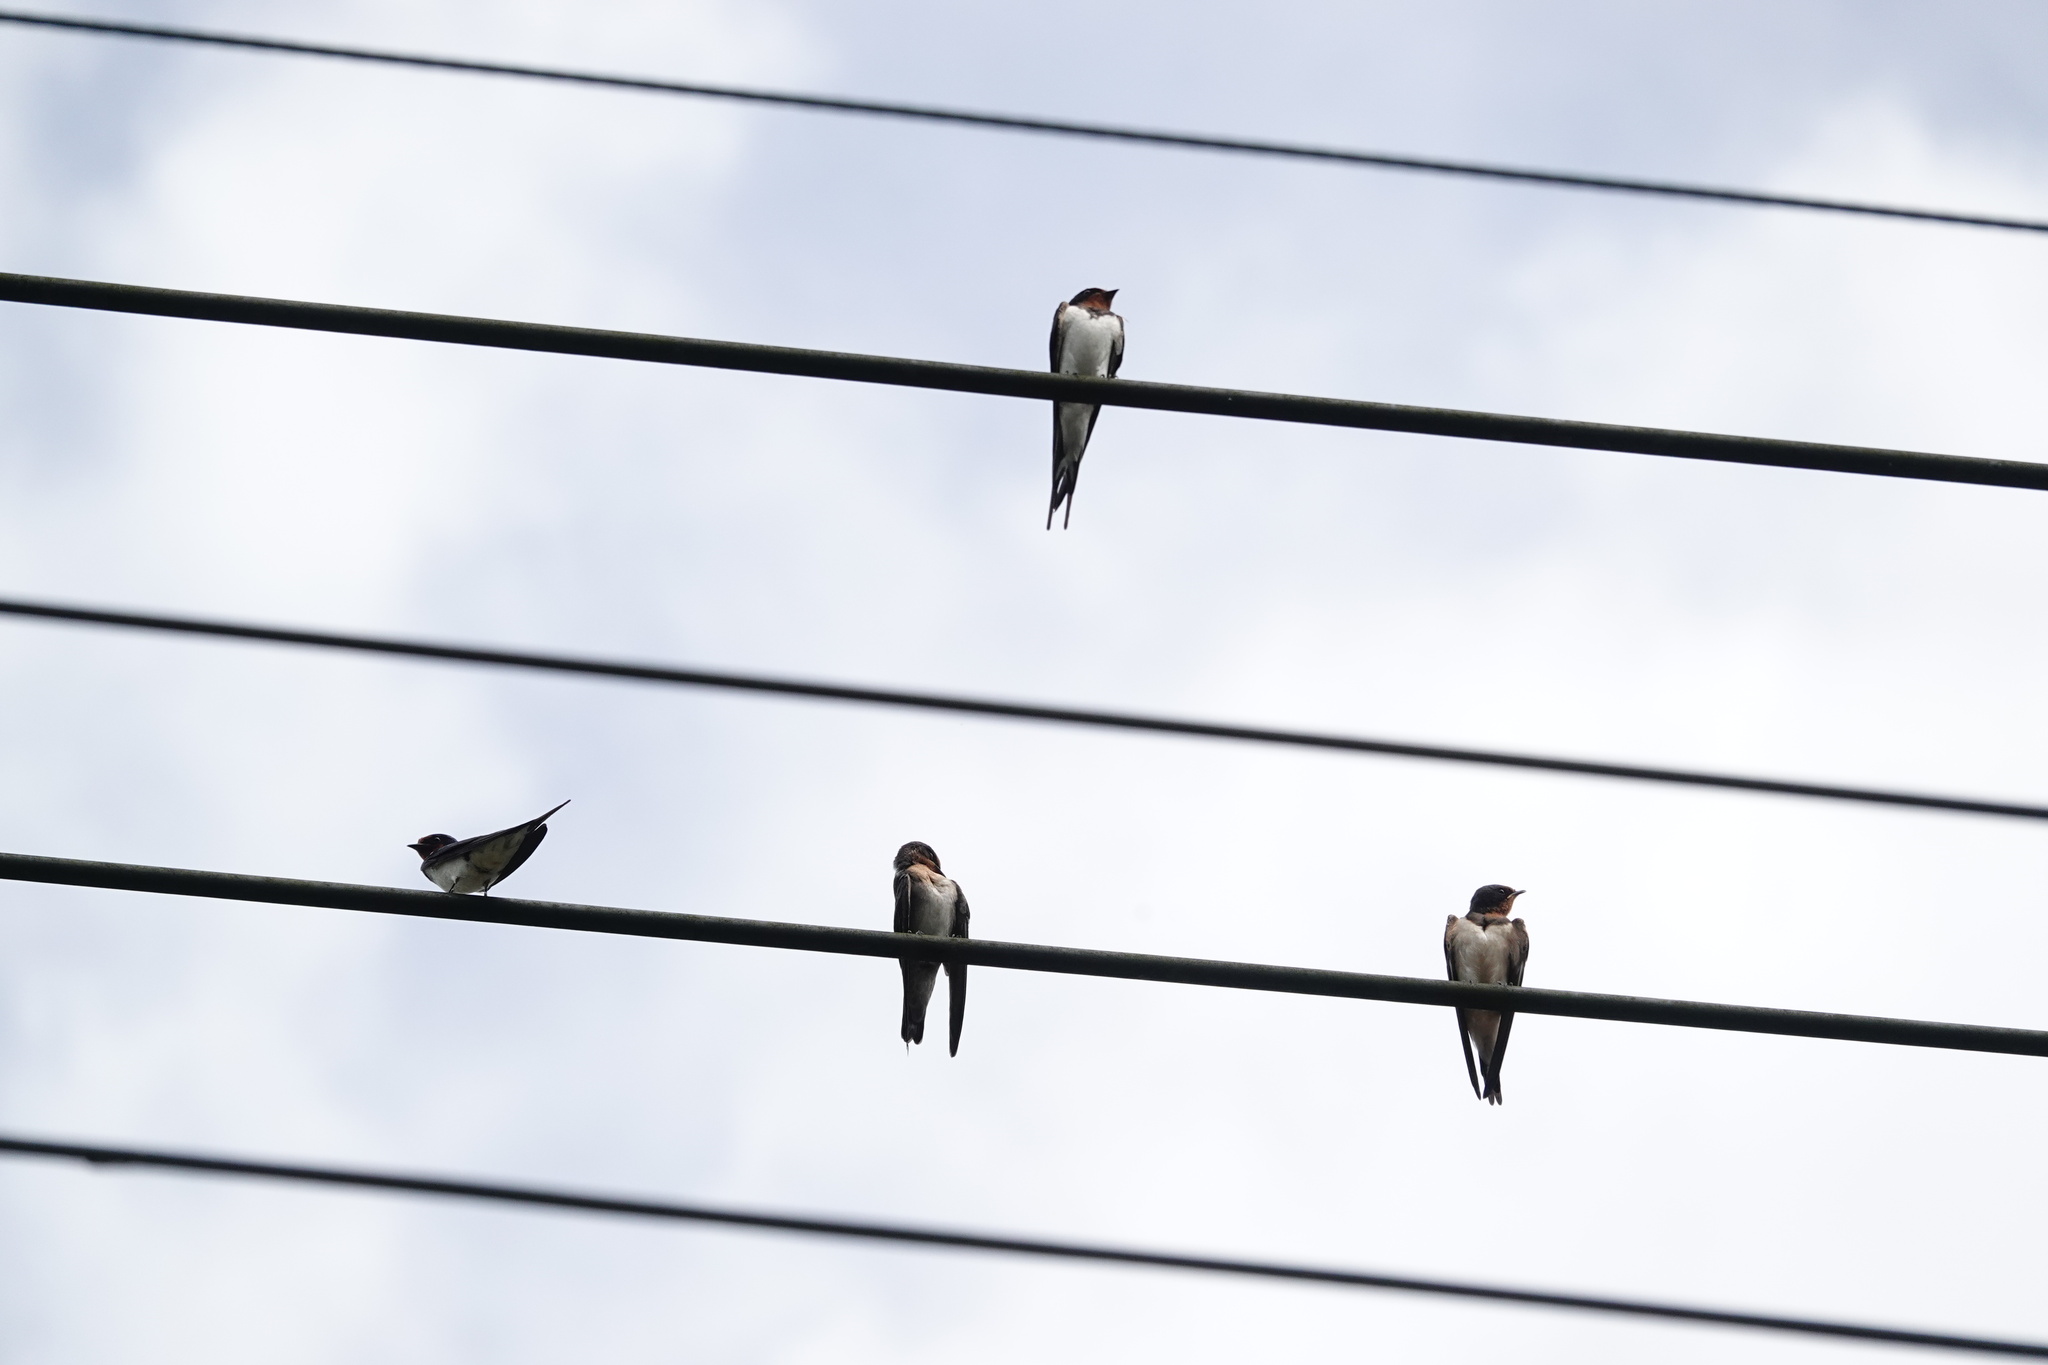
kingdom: Animalia
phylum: Chordata
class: Aves
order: Passeriformes
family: Hirundinidae
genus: Hirundo
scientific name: Hirundo rustica
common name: Barn swallow
